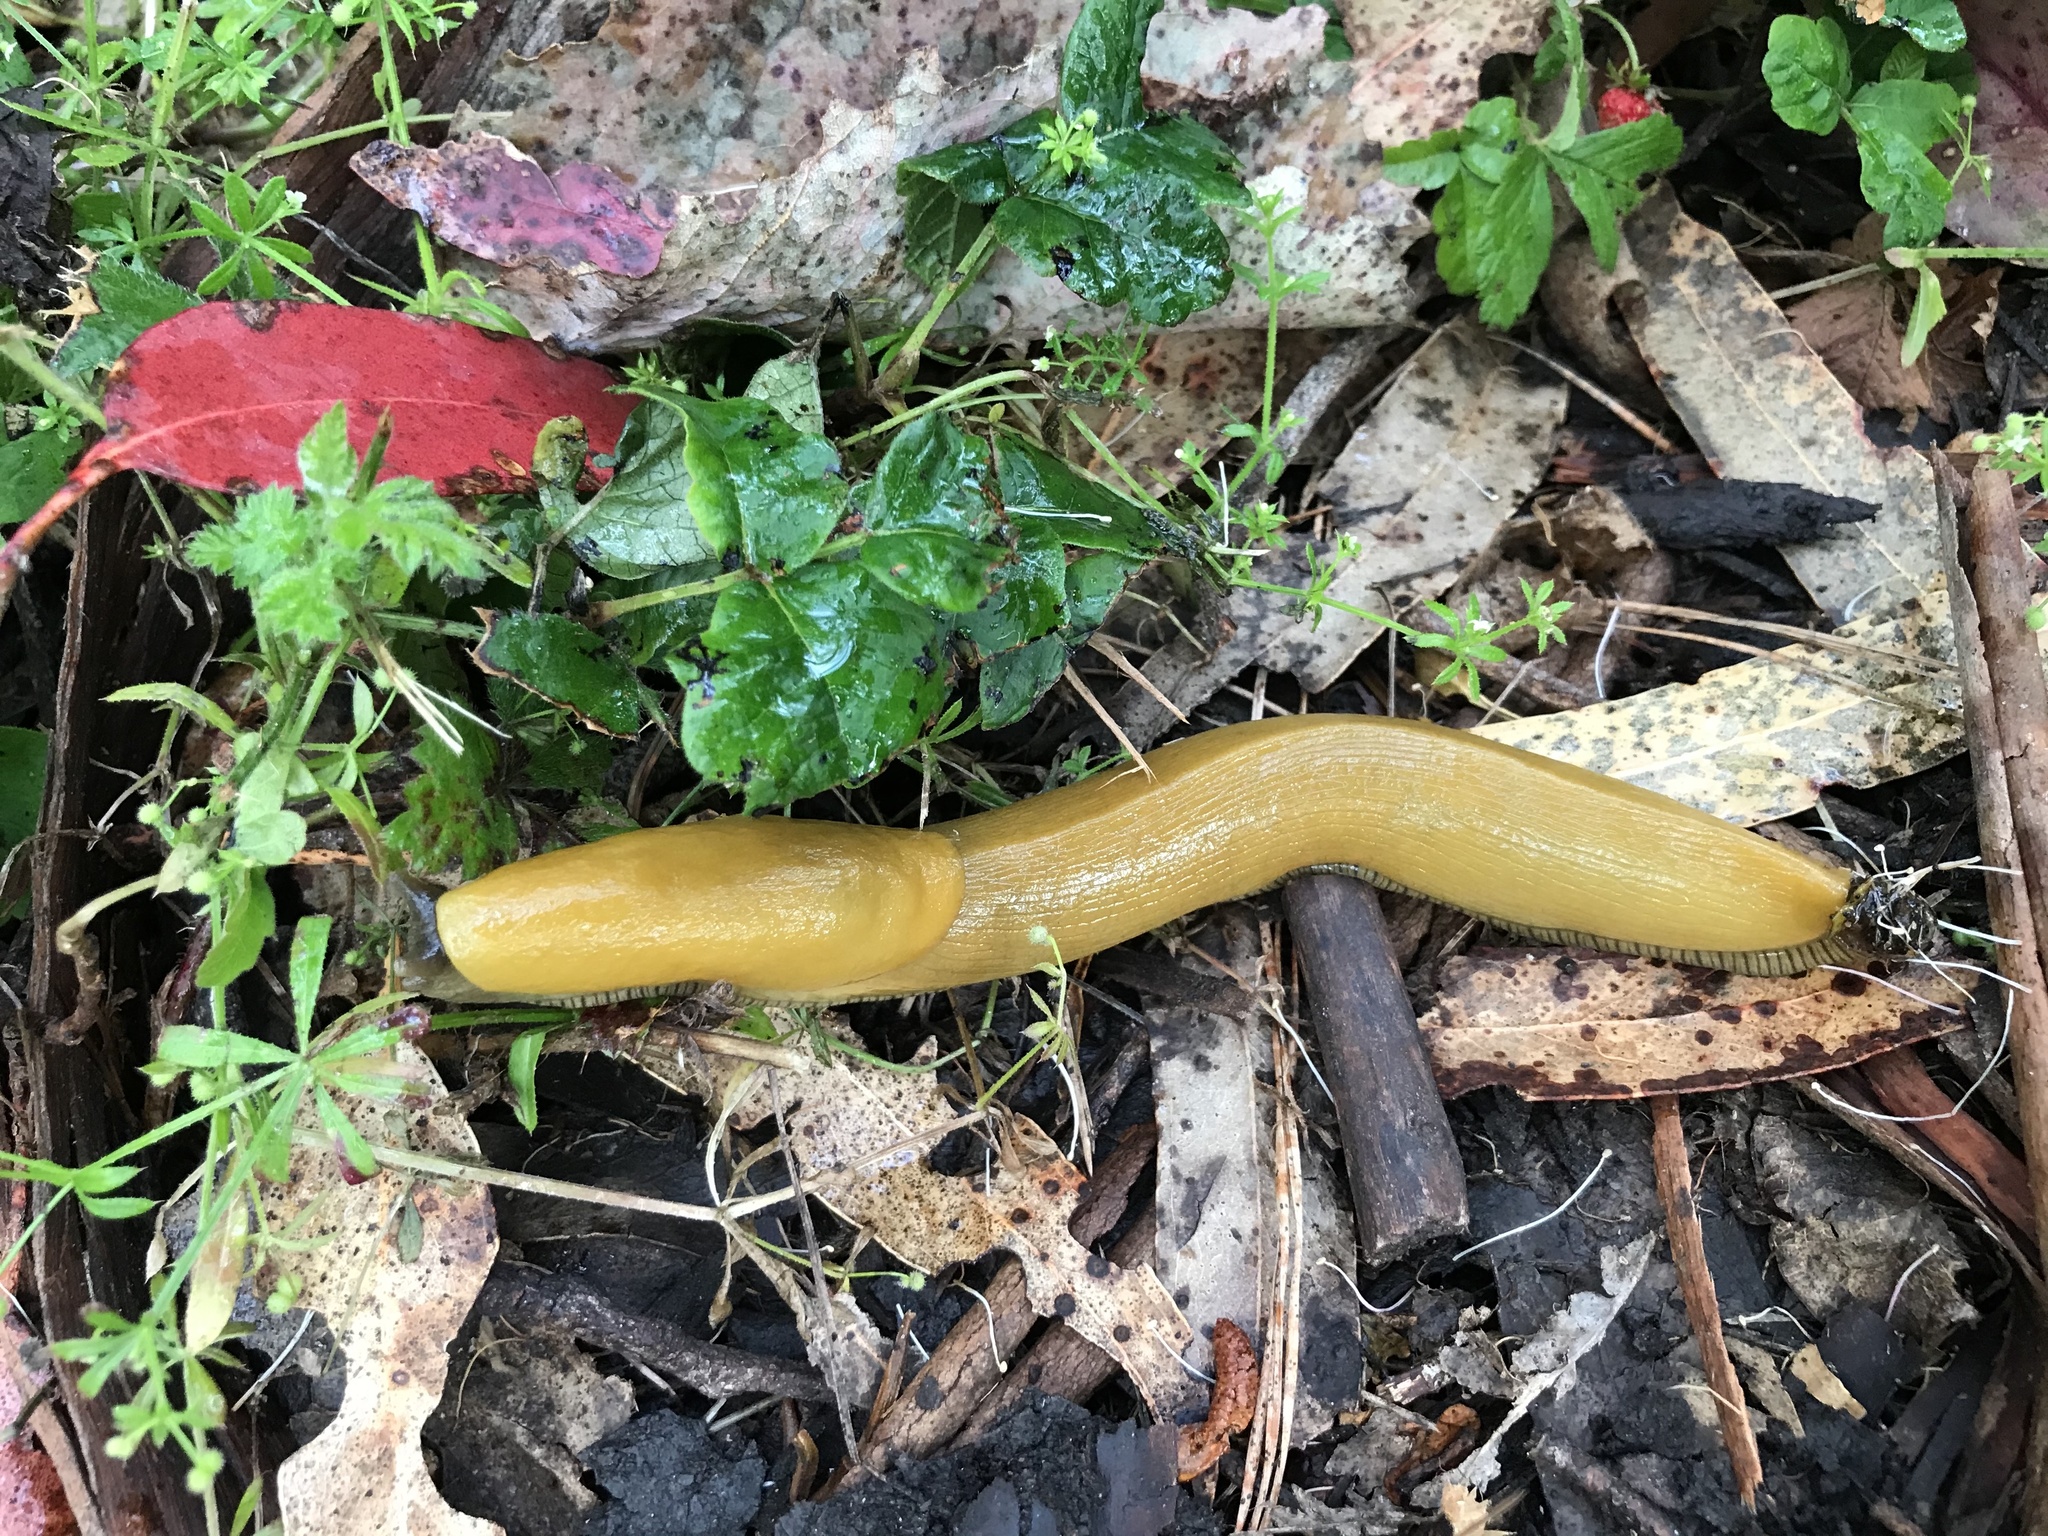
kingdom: Animalia
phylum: Mollusca
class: Gastropoda
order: Stylommatophora
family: Ariolimacidae
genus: Ariolimax
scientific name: Ariolimax californicus
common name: California banana slug
